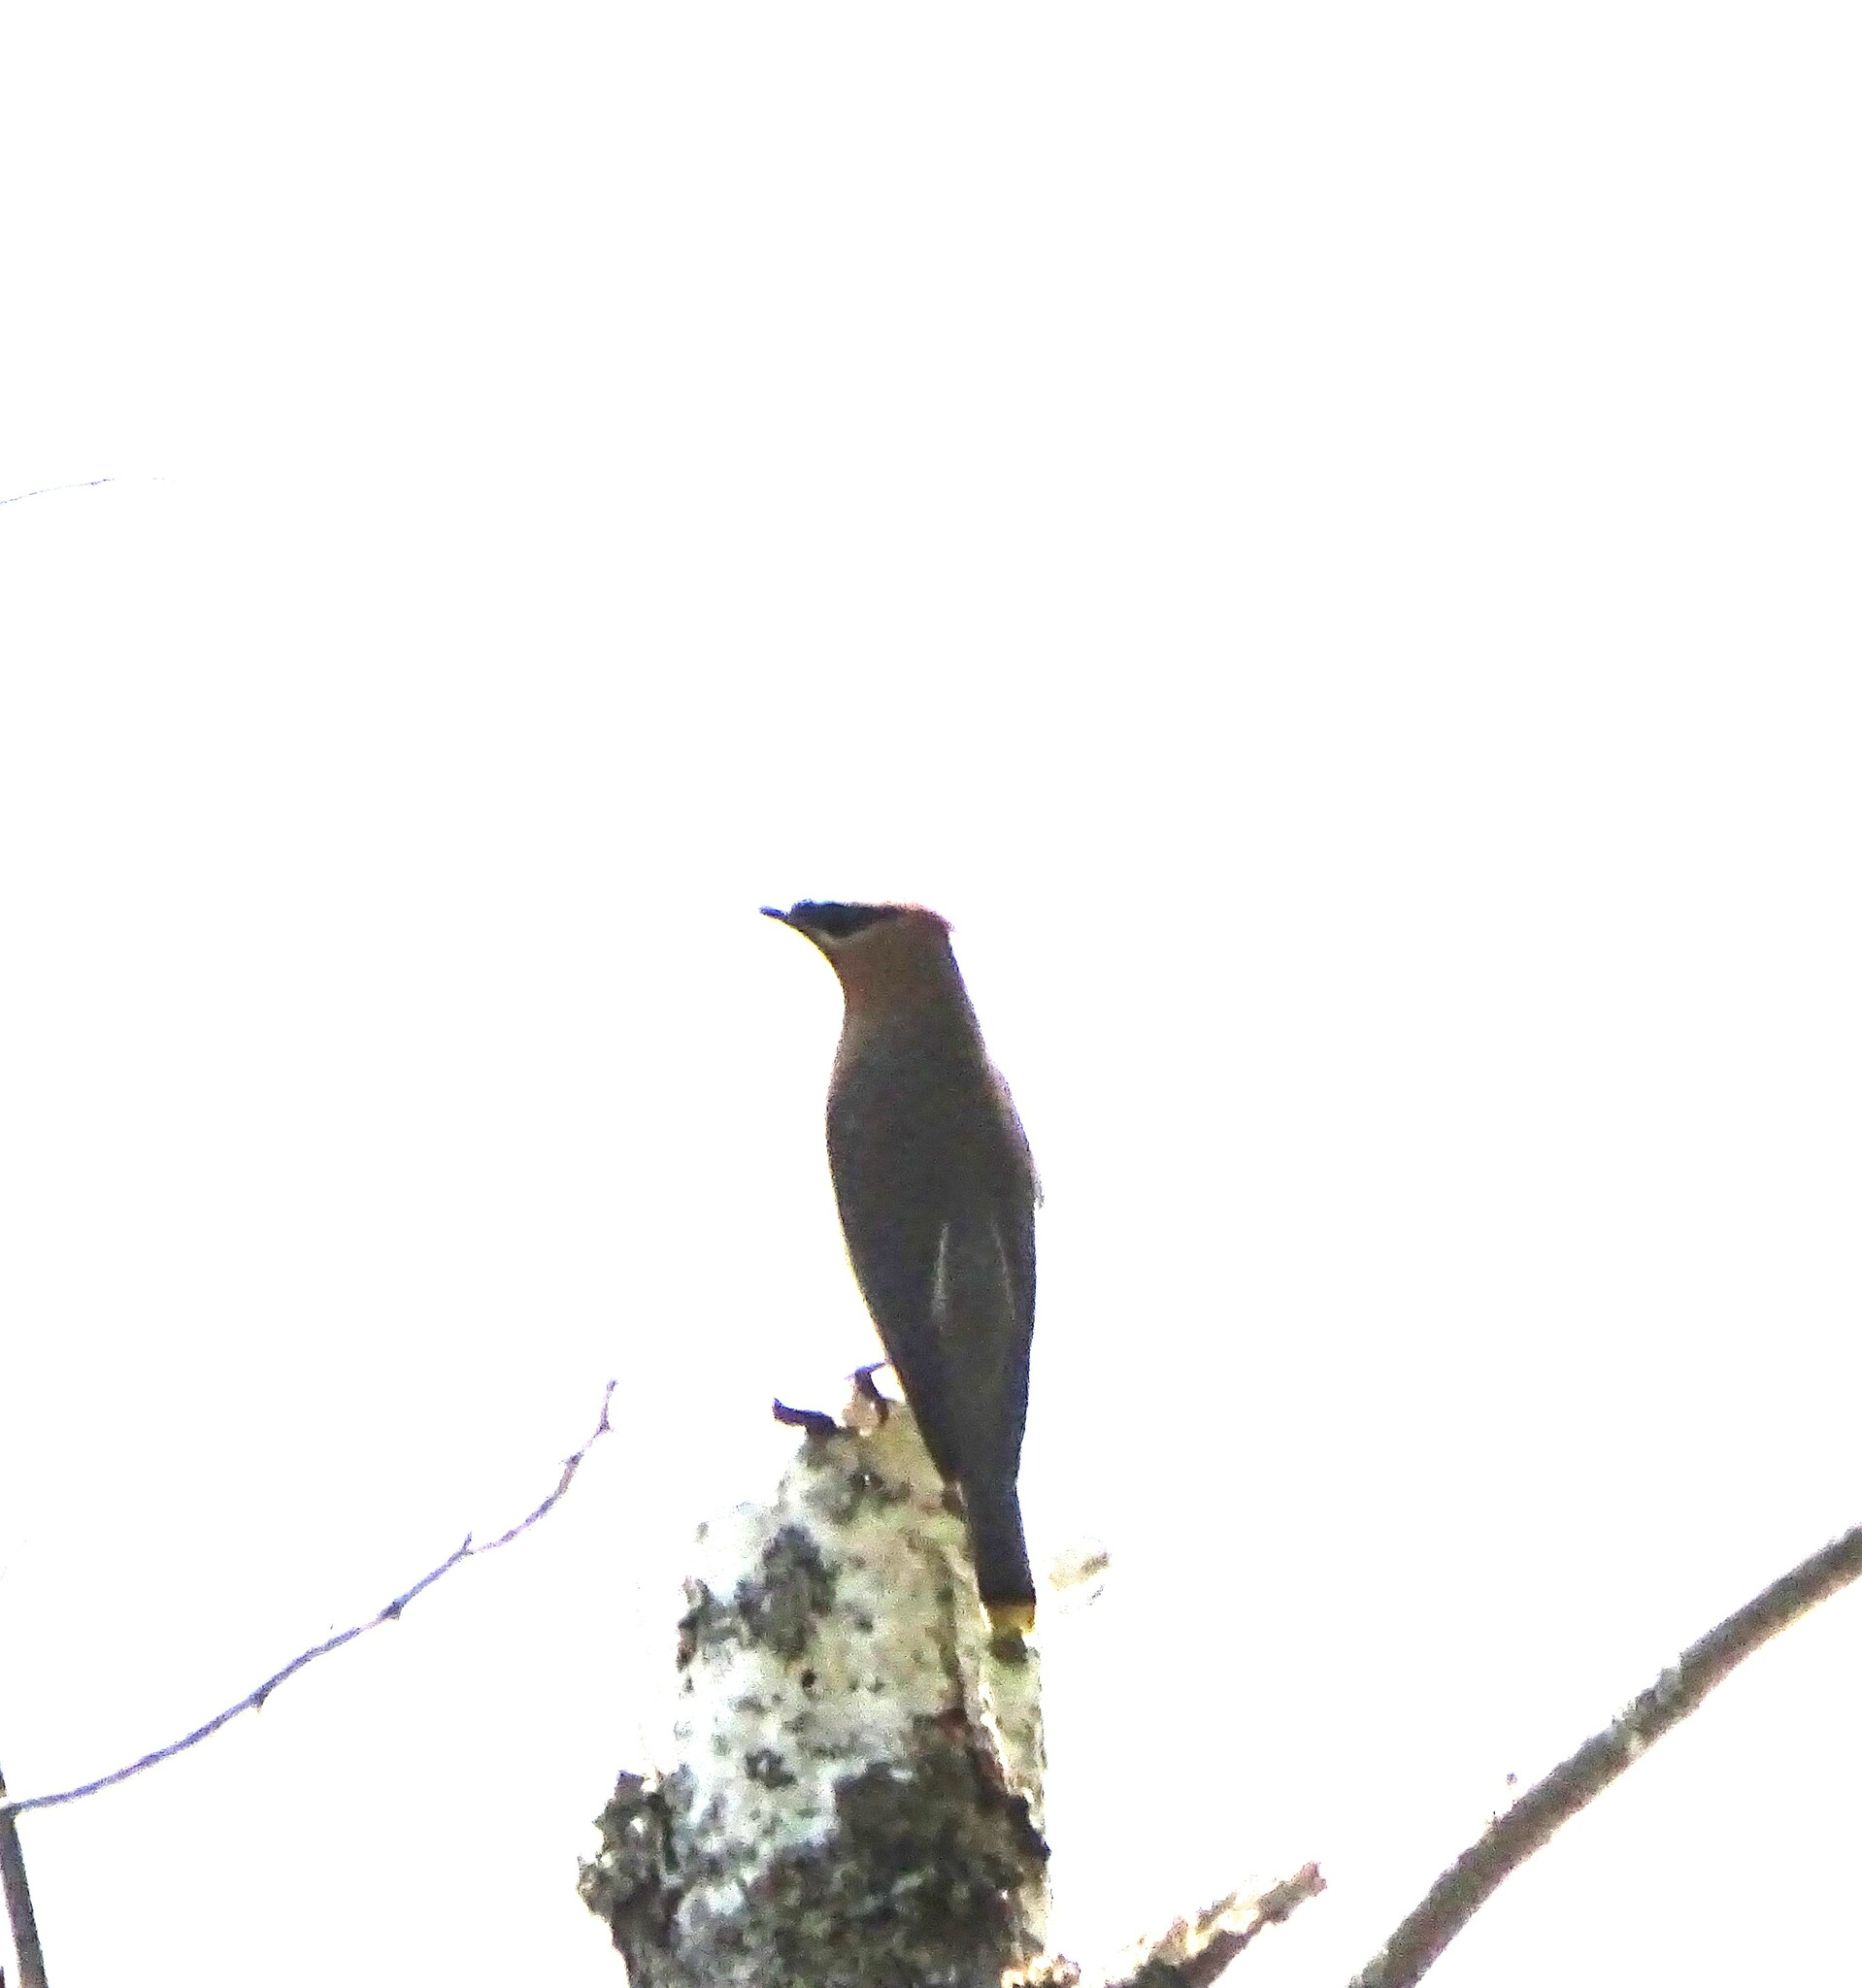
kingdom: Animalia
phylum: Chordata
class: Aves
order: Passeriformes
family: Bombycillidae
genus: Bombycilla
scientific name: Bombycilla cedrorum
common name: Cedar waxwing
